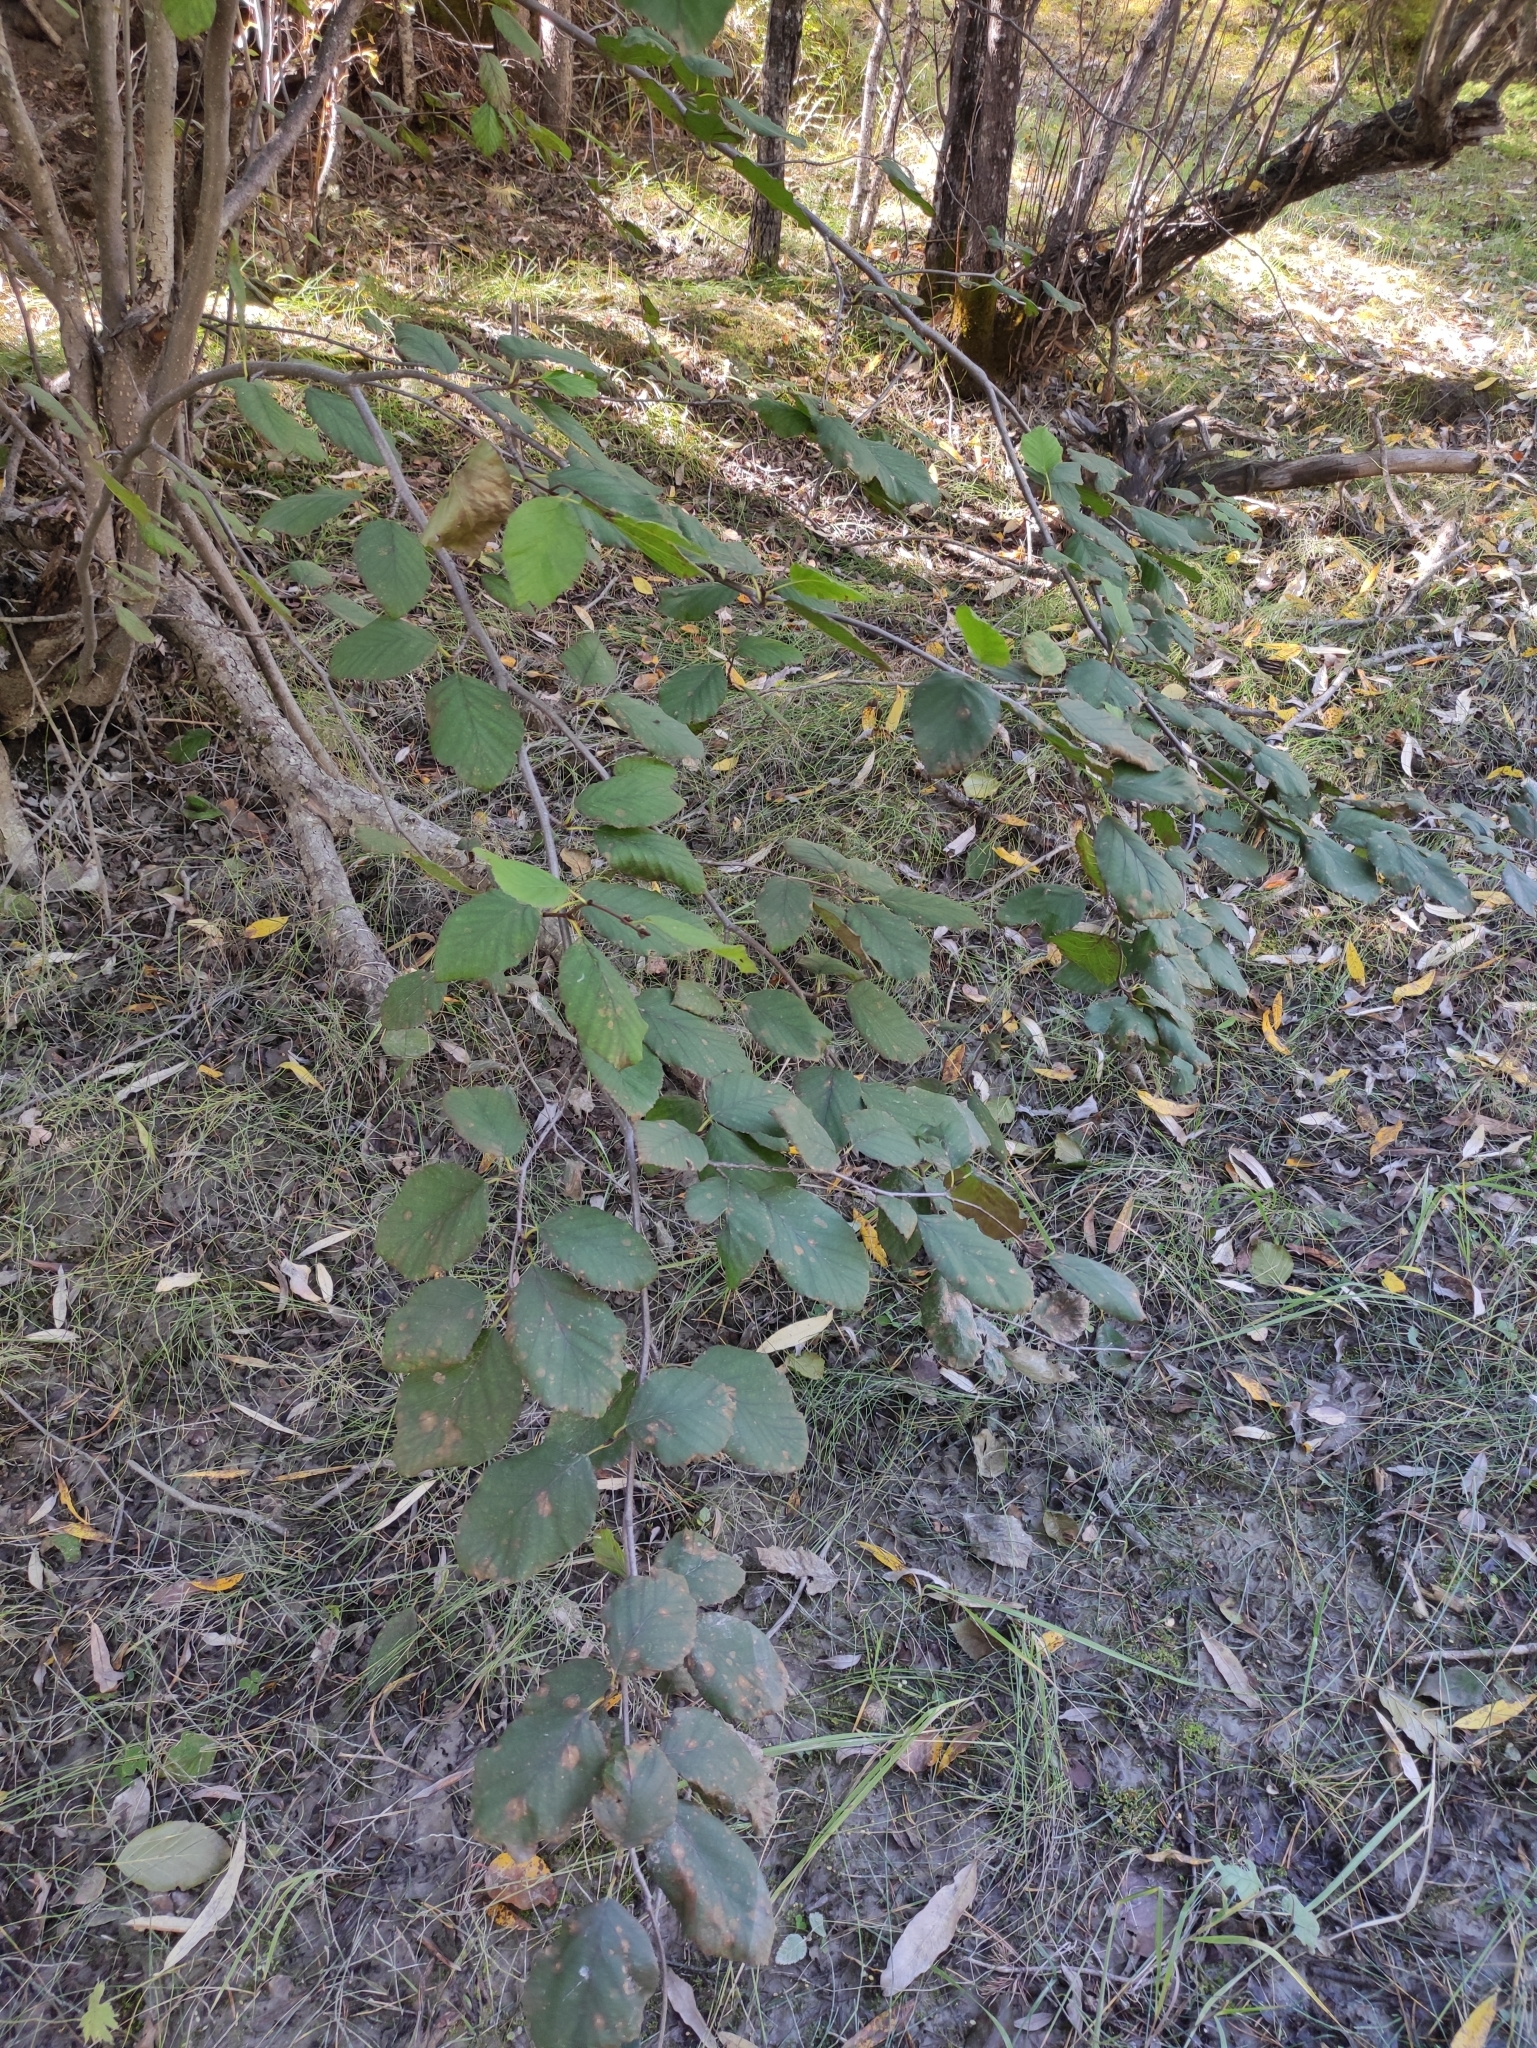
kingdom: Plantae
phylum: Tracheophyta
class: Magnoliopsida
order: Fagales
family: Betulaceae
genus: Alnus
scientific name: Alnus alnobetula
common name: Green alder
